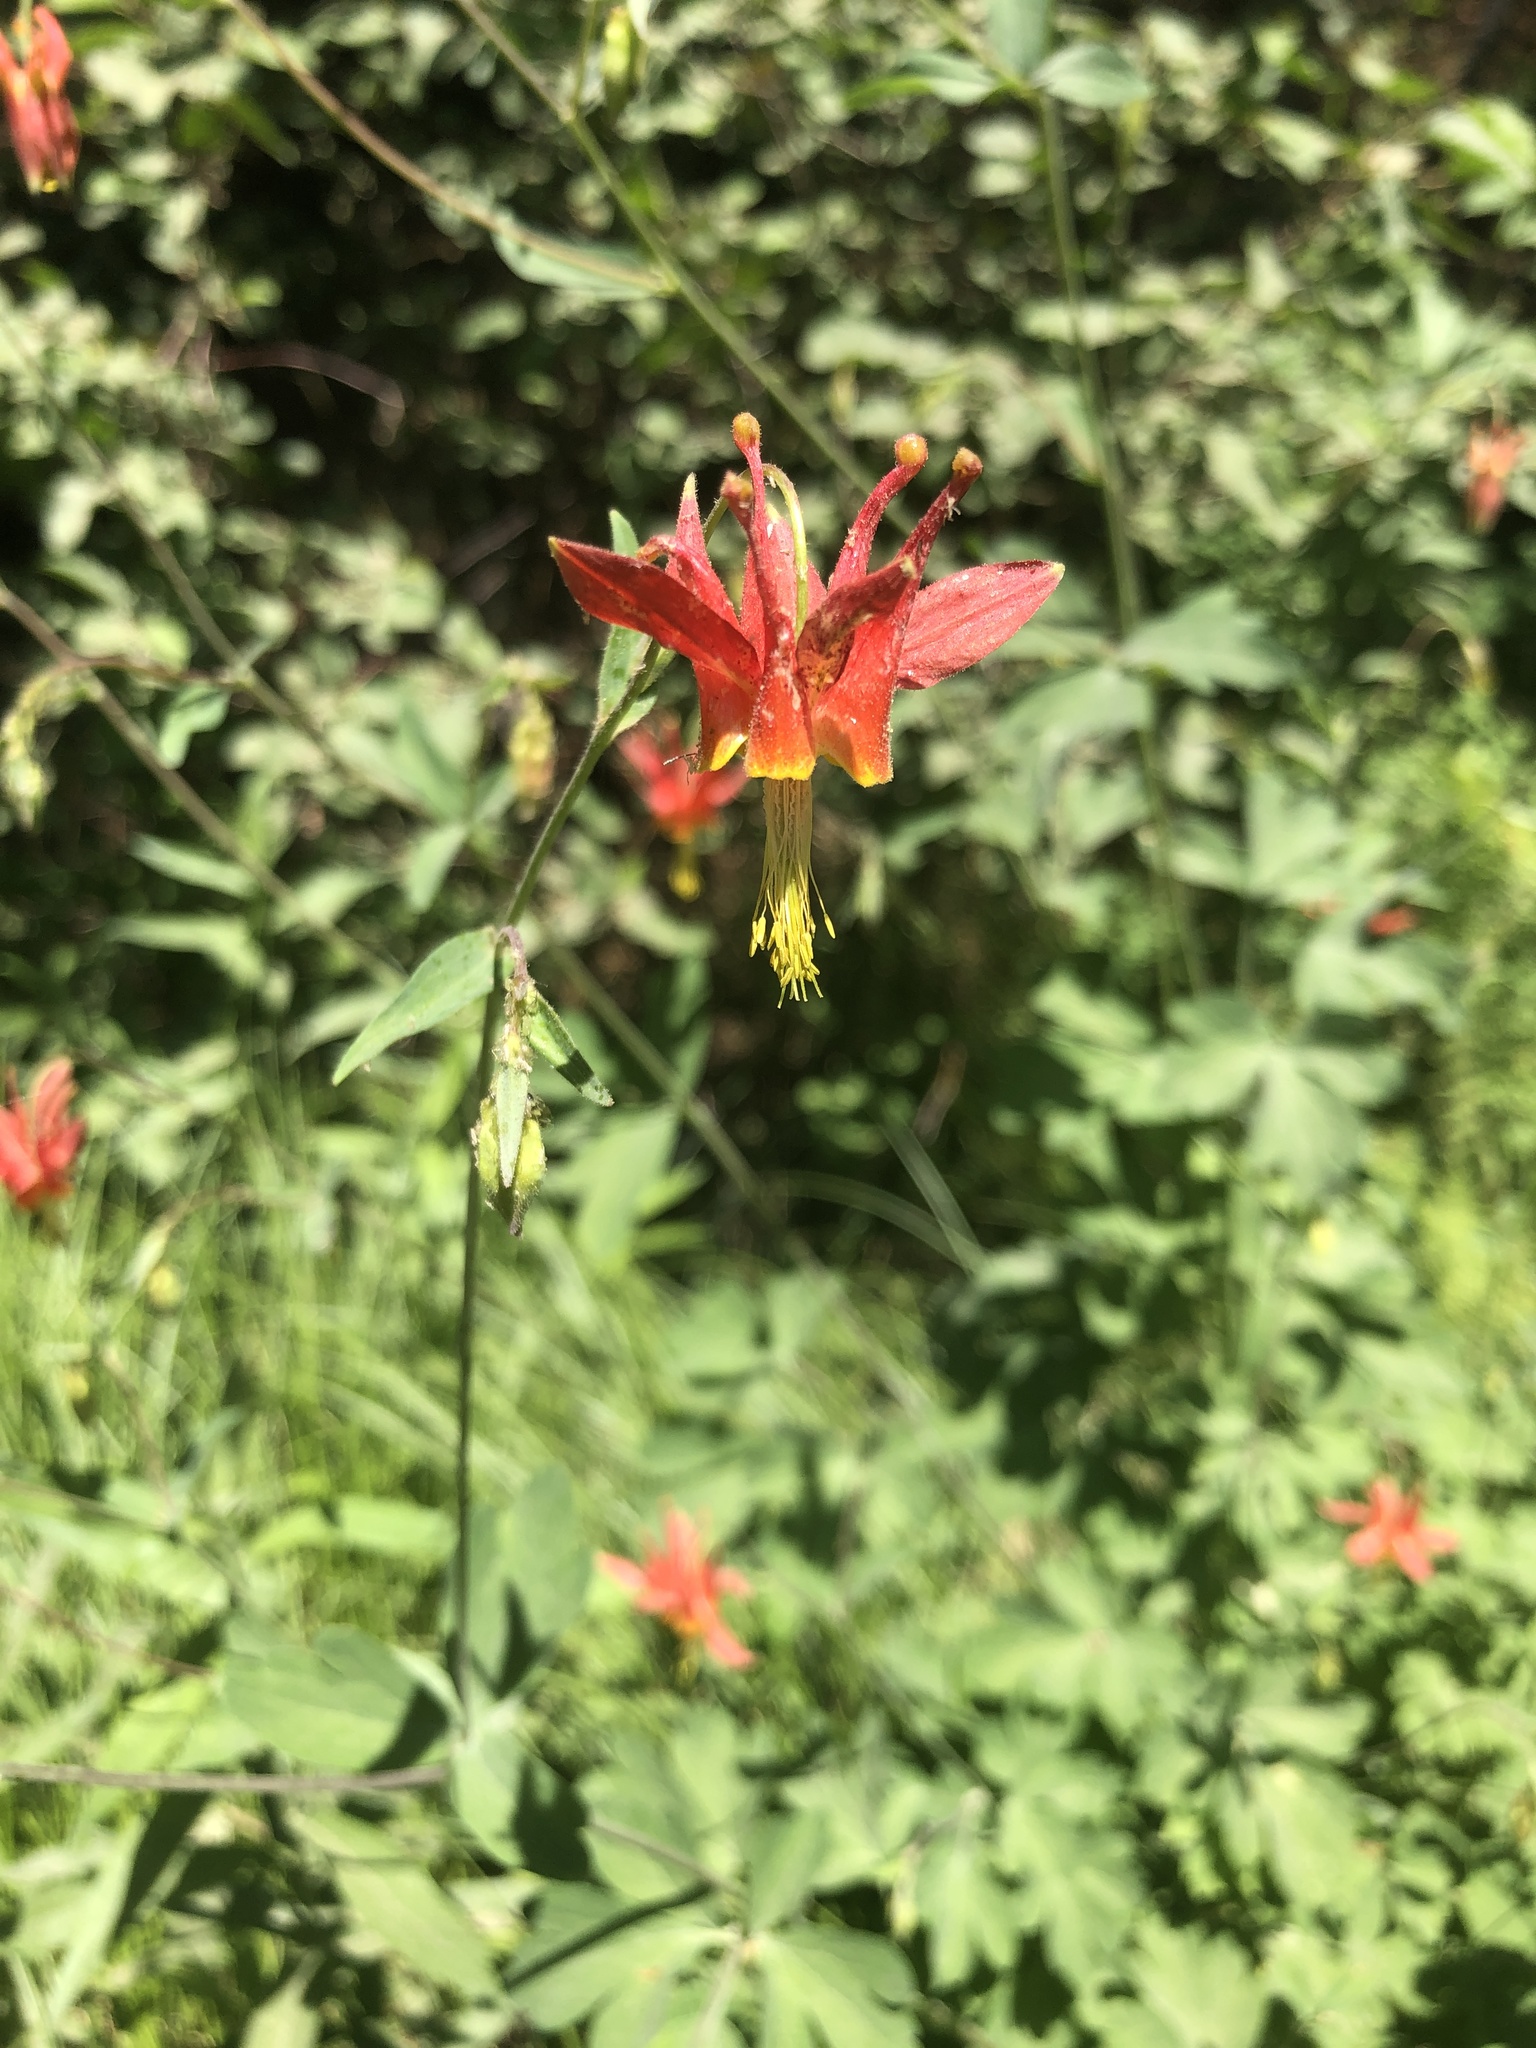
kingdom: Plantae
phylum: Tracheophyta
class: Magnoliopsida
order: Ranunculales
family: Ranunculaceae
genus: Aquilegia
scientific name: Aquilegia formosa
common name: Sitka columbine
